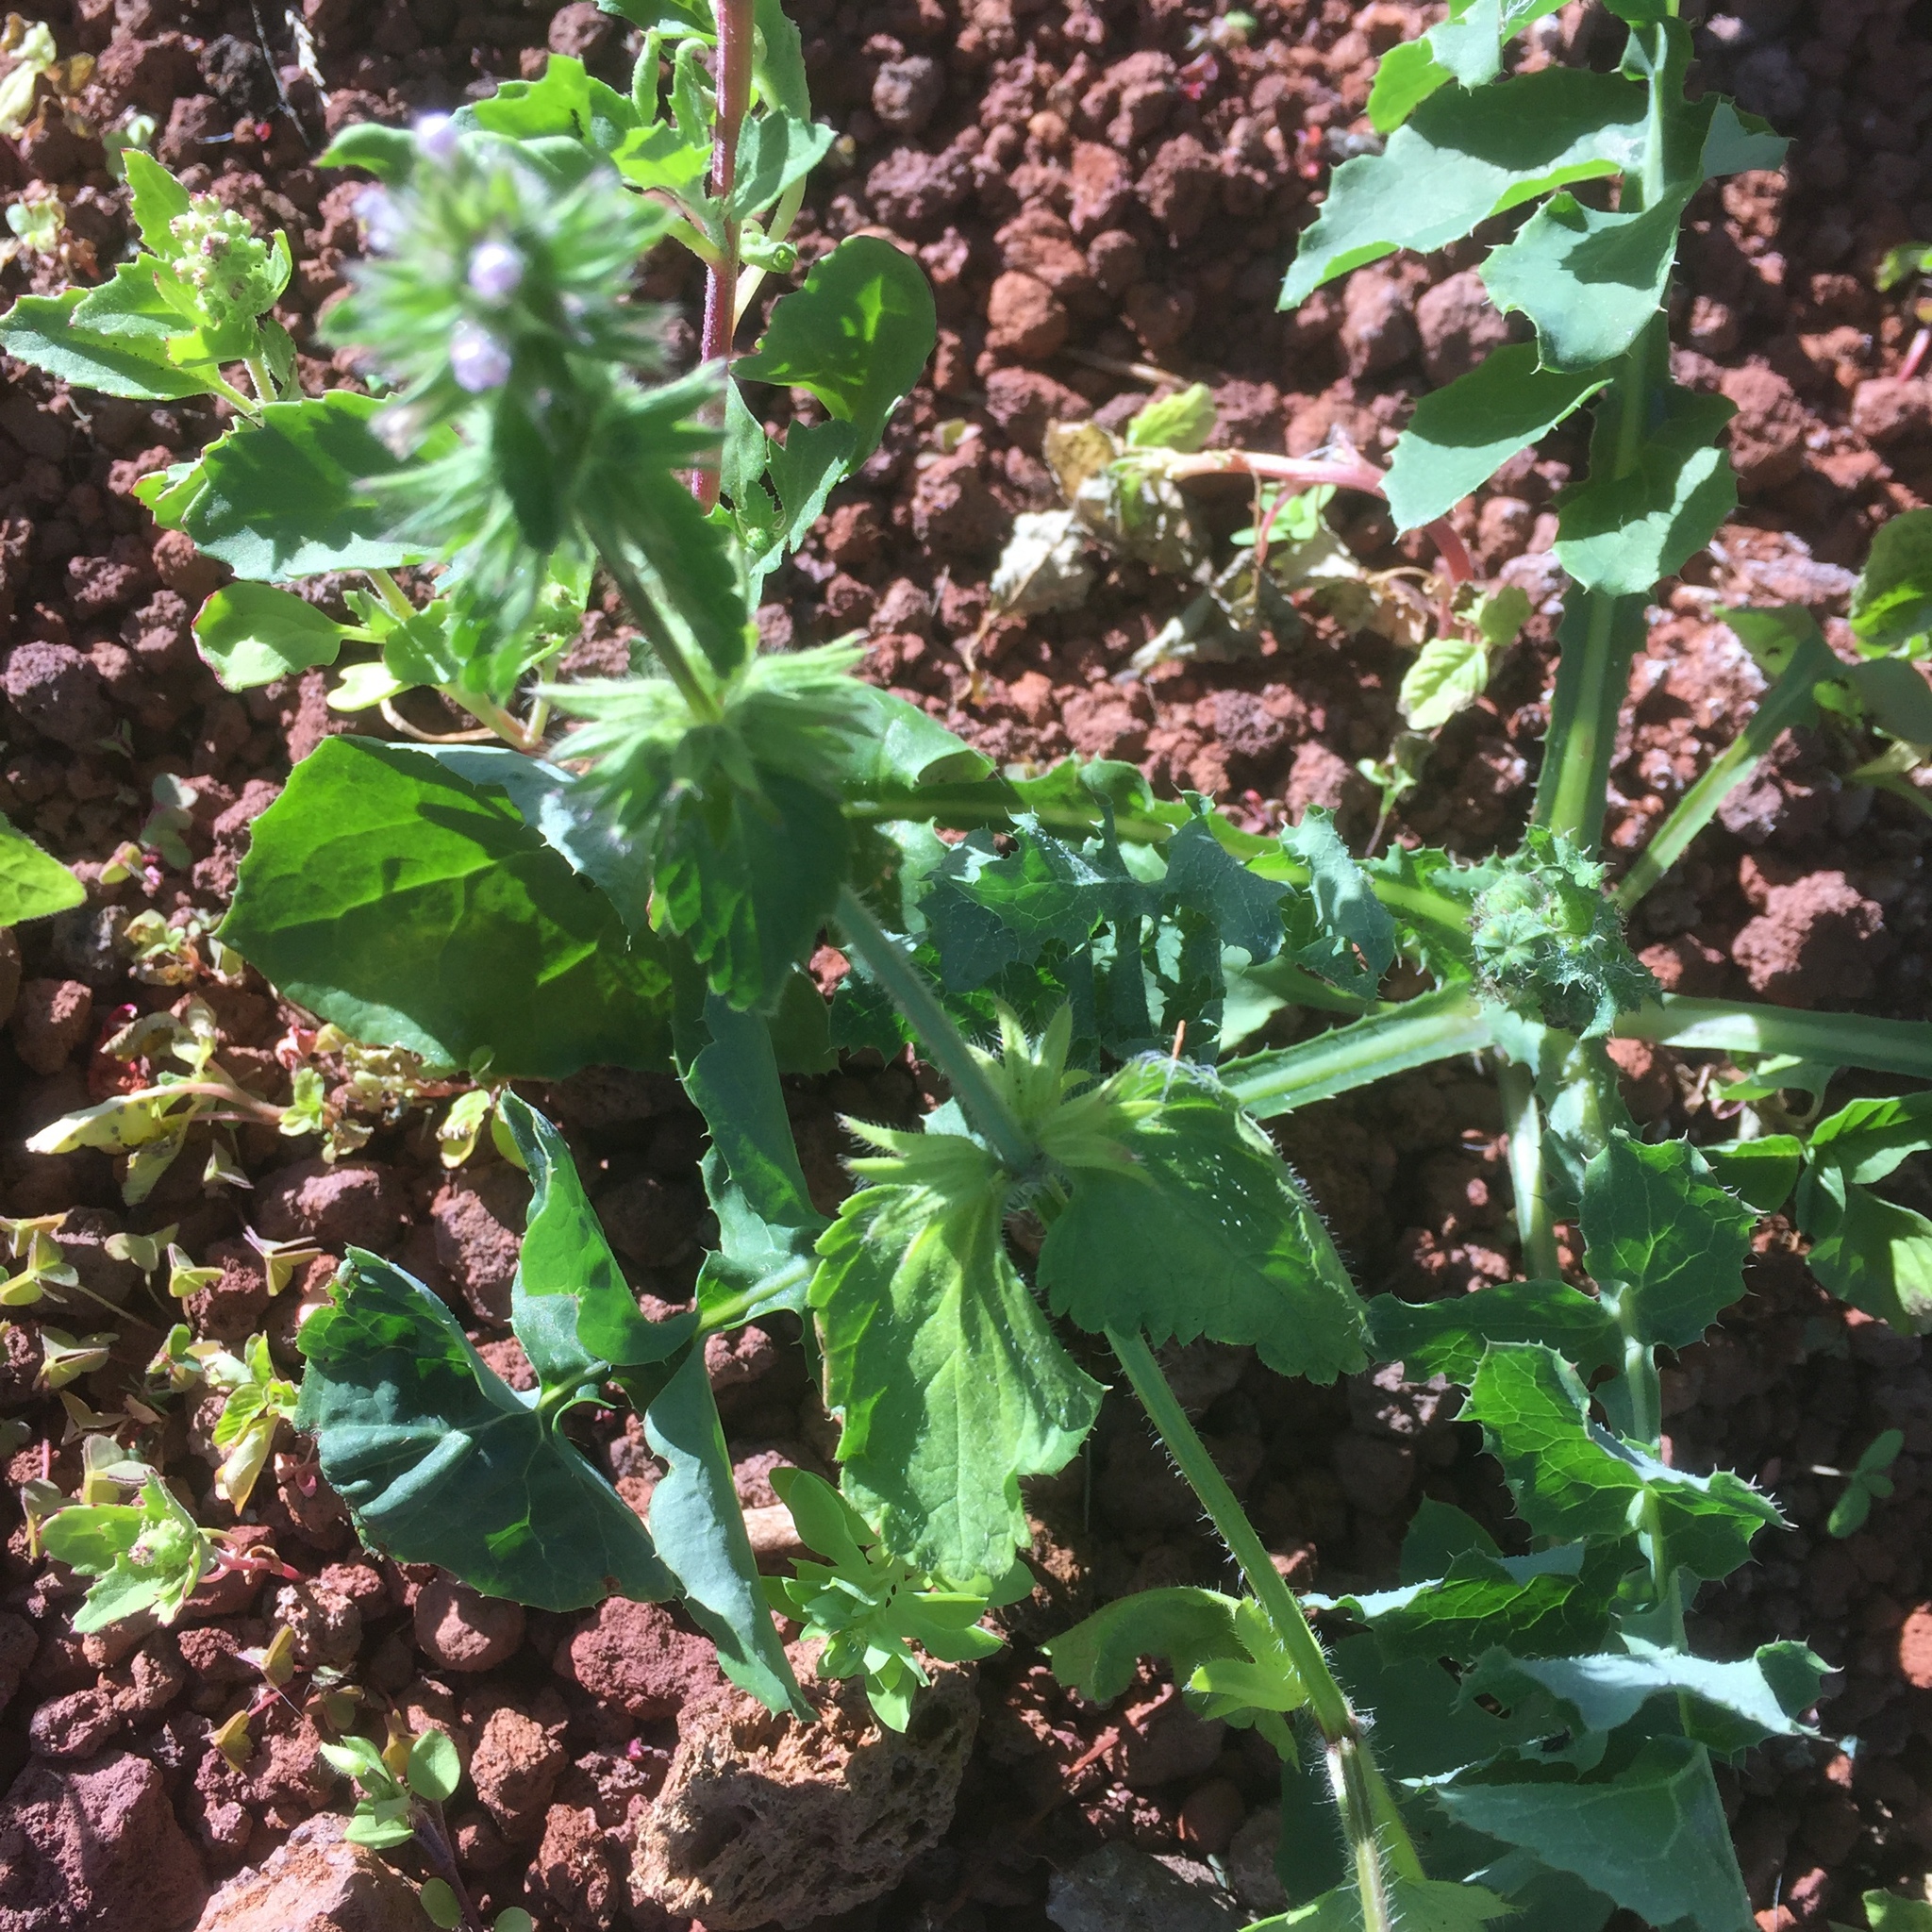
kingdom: Plantae
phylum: Tracheophyta
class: Magnoliopsida
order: Lamiales
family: Lamiaceae
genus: Stachys
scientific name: Stachys arvensis
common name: Field woundwort
